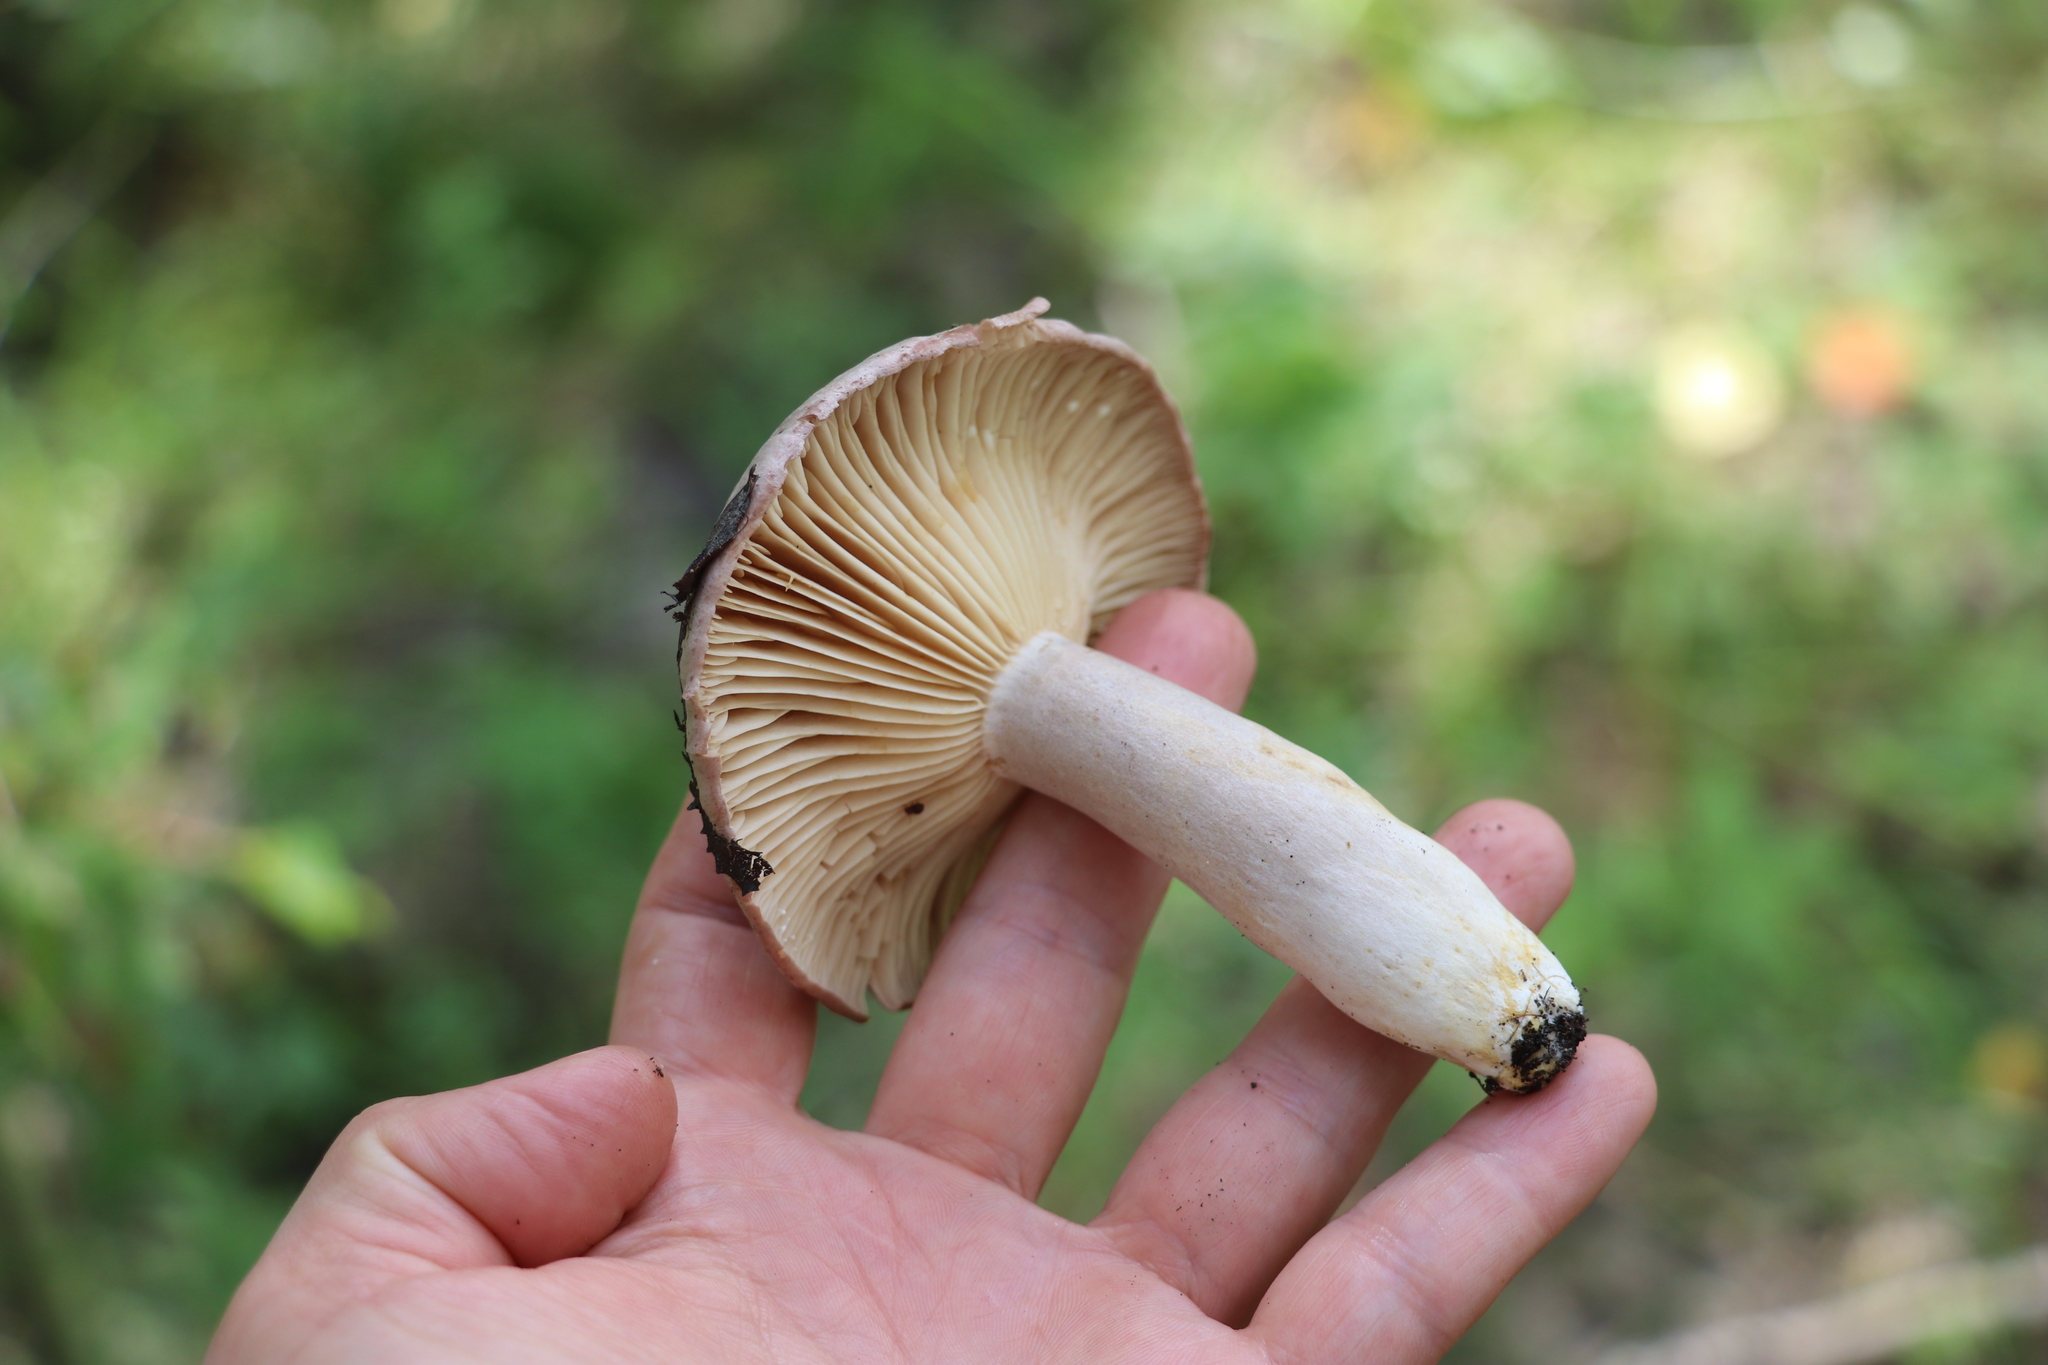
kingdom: Fungi
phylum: Basidiomycota
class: Agaricomycetes
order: Russulales
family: Russulaceae
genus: Lactarius
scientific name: Lactarius flexuosus
